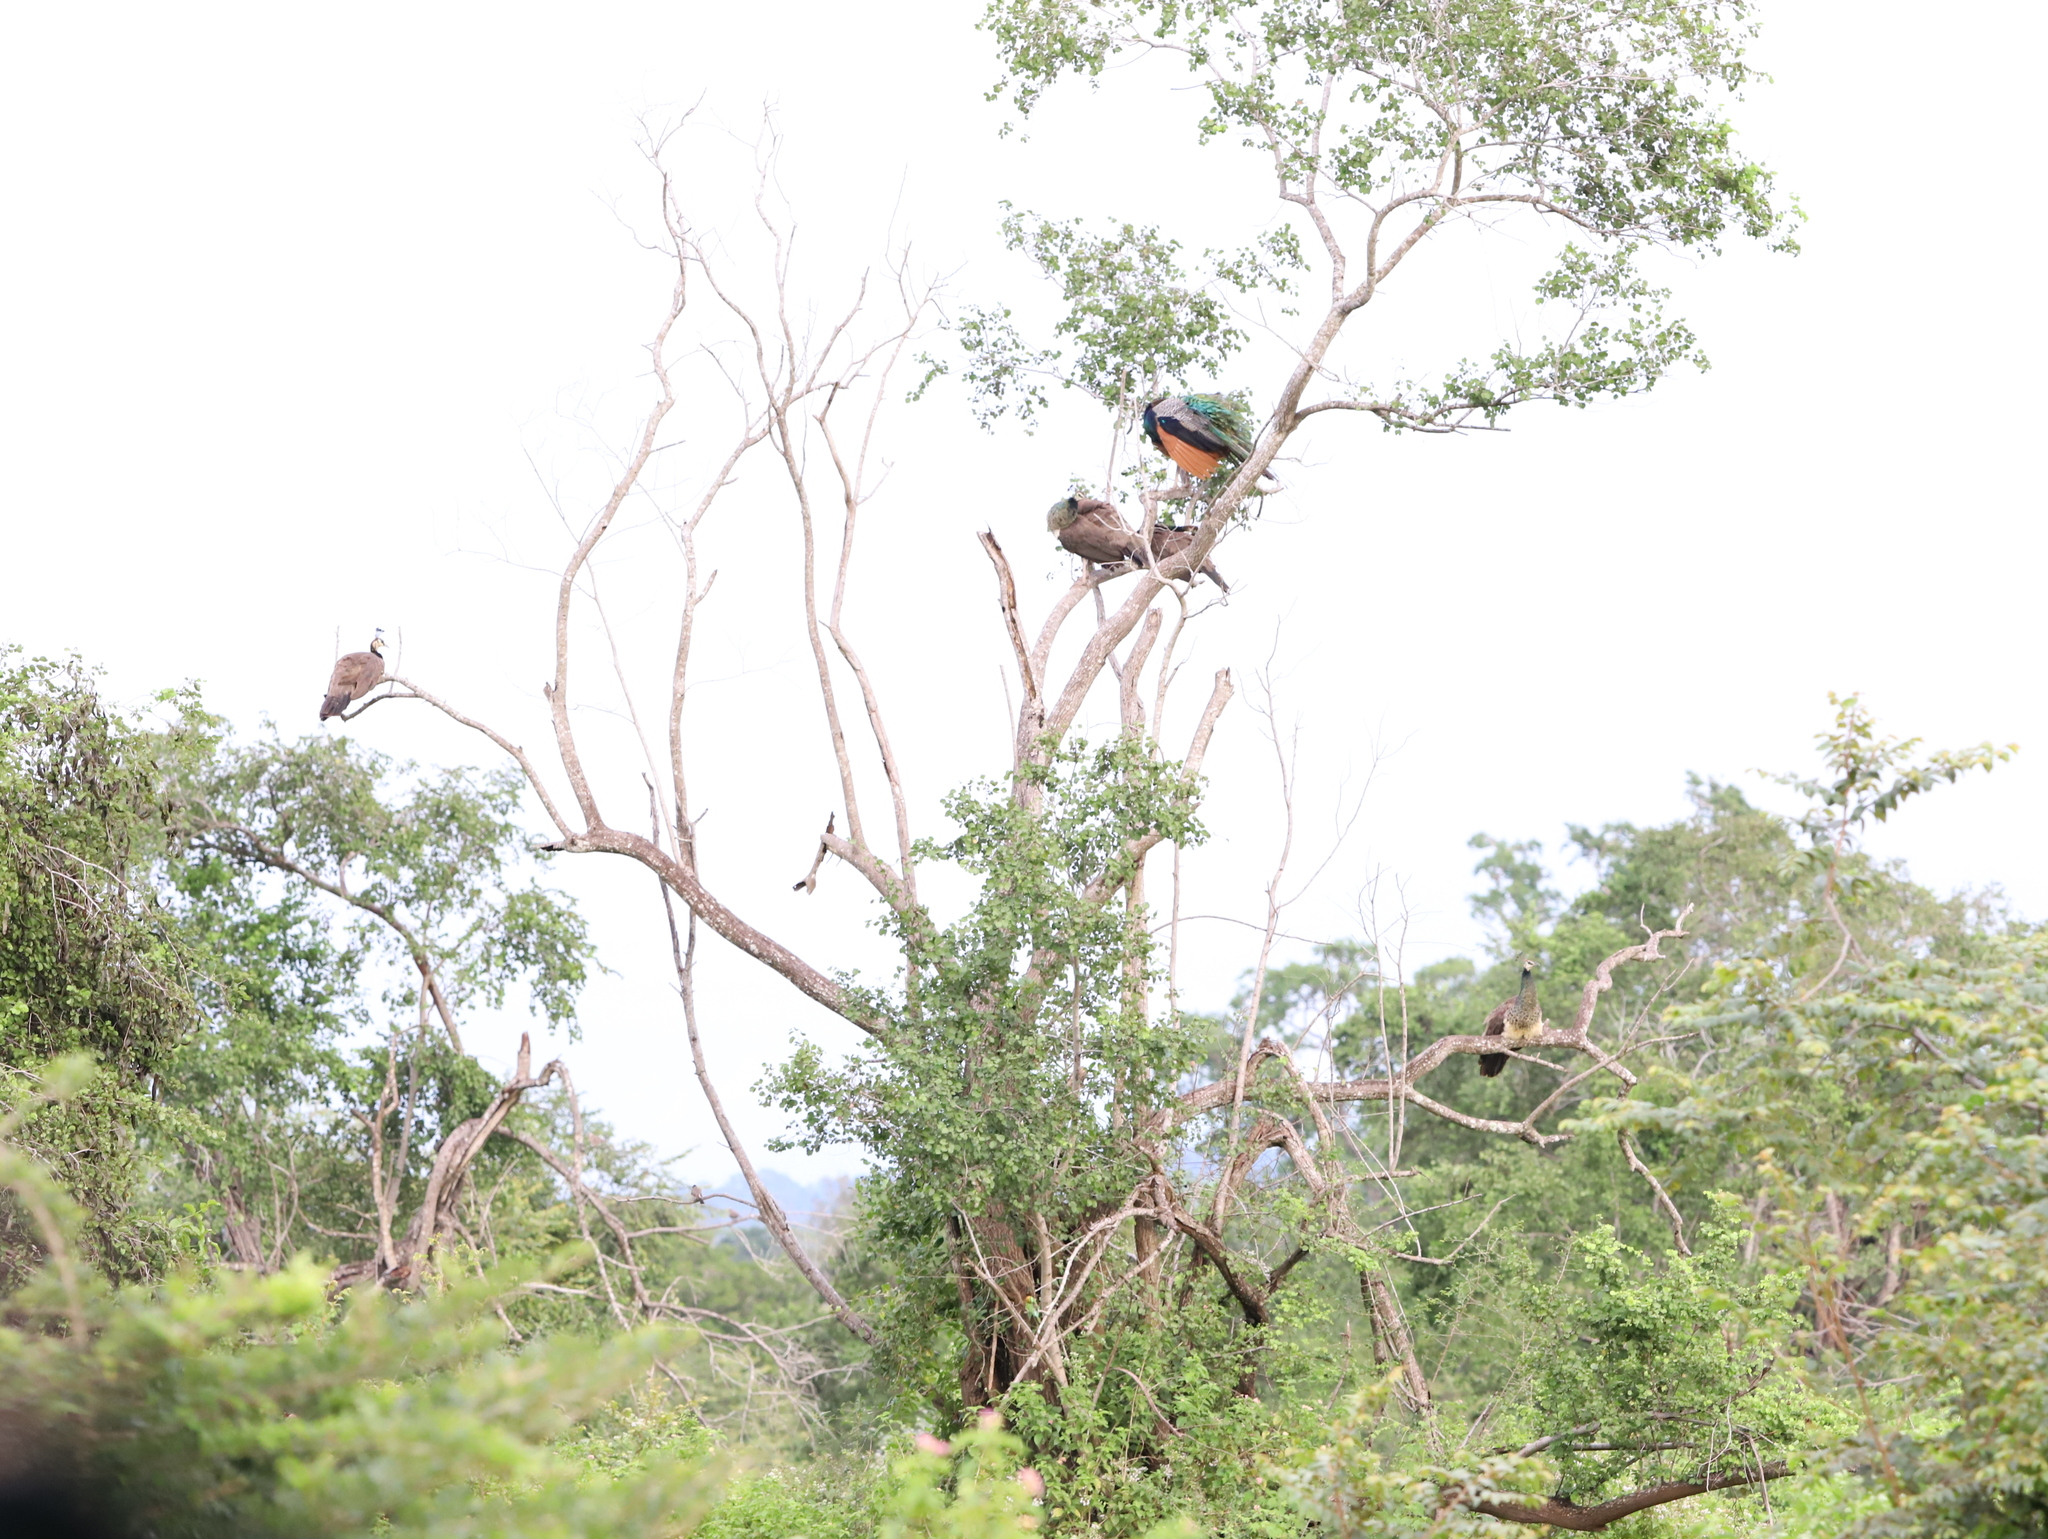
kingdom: Animalia
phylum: Chordata
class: Aves
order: Galliformes
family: Phasianidae
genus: Pavo
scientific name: Pavo cristatus
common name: Indian peafowl
